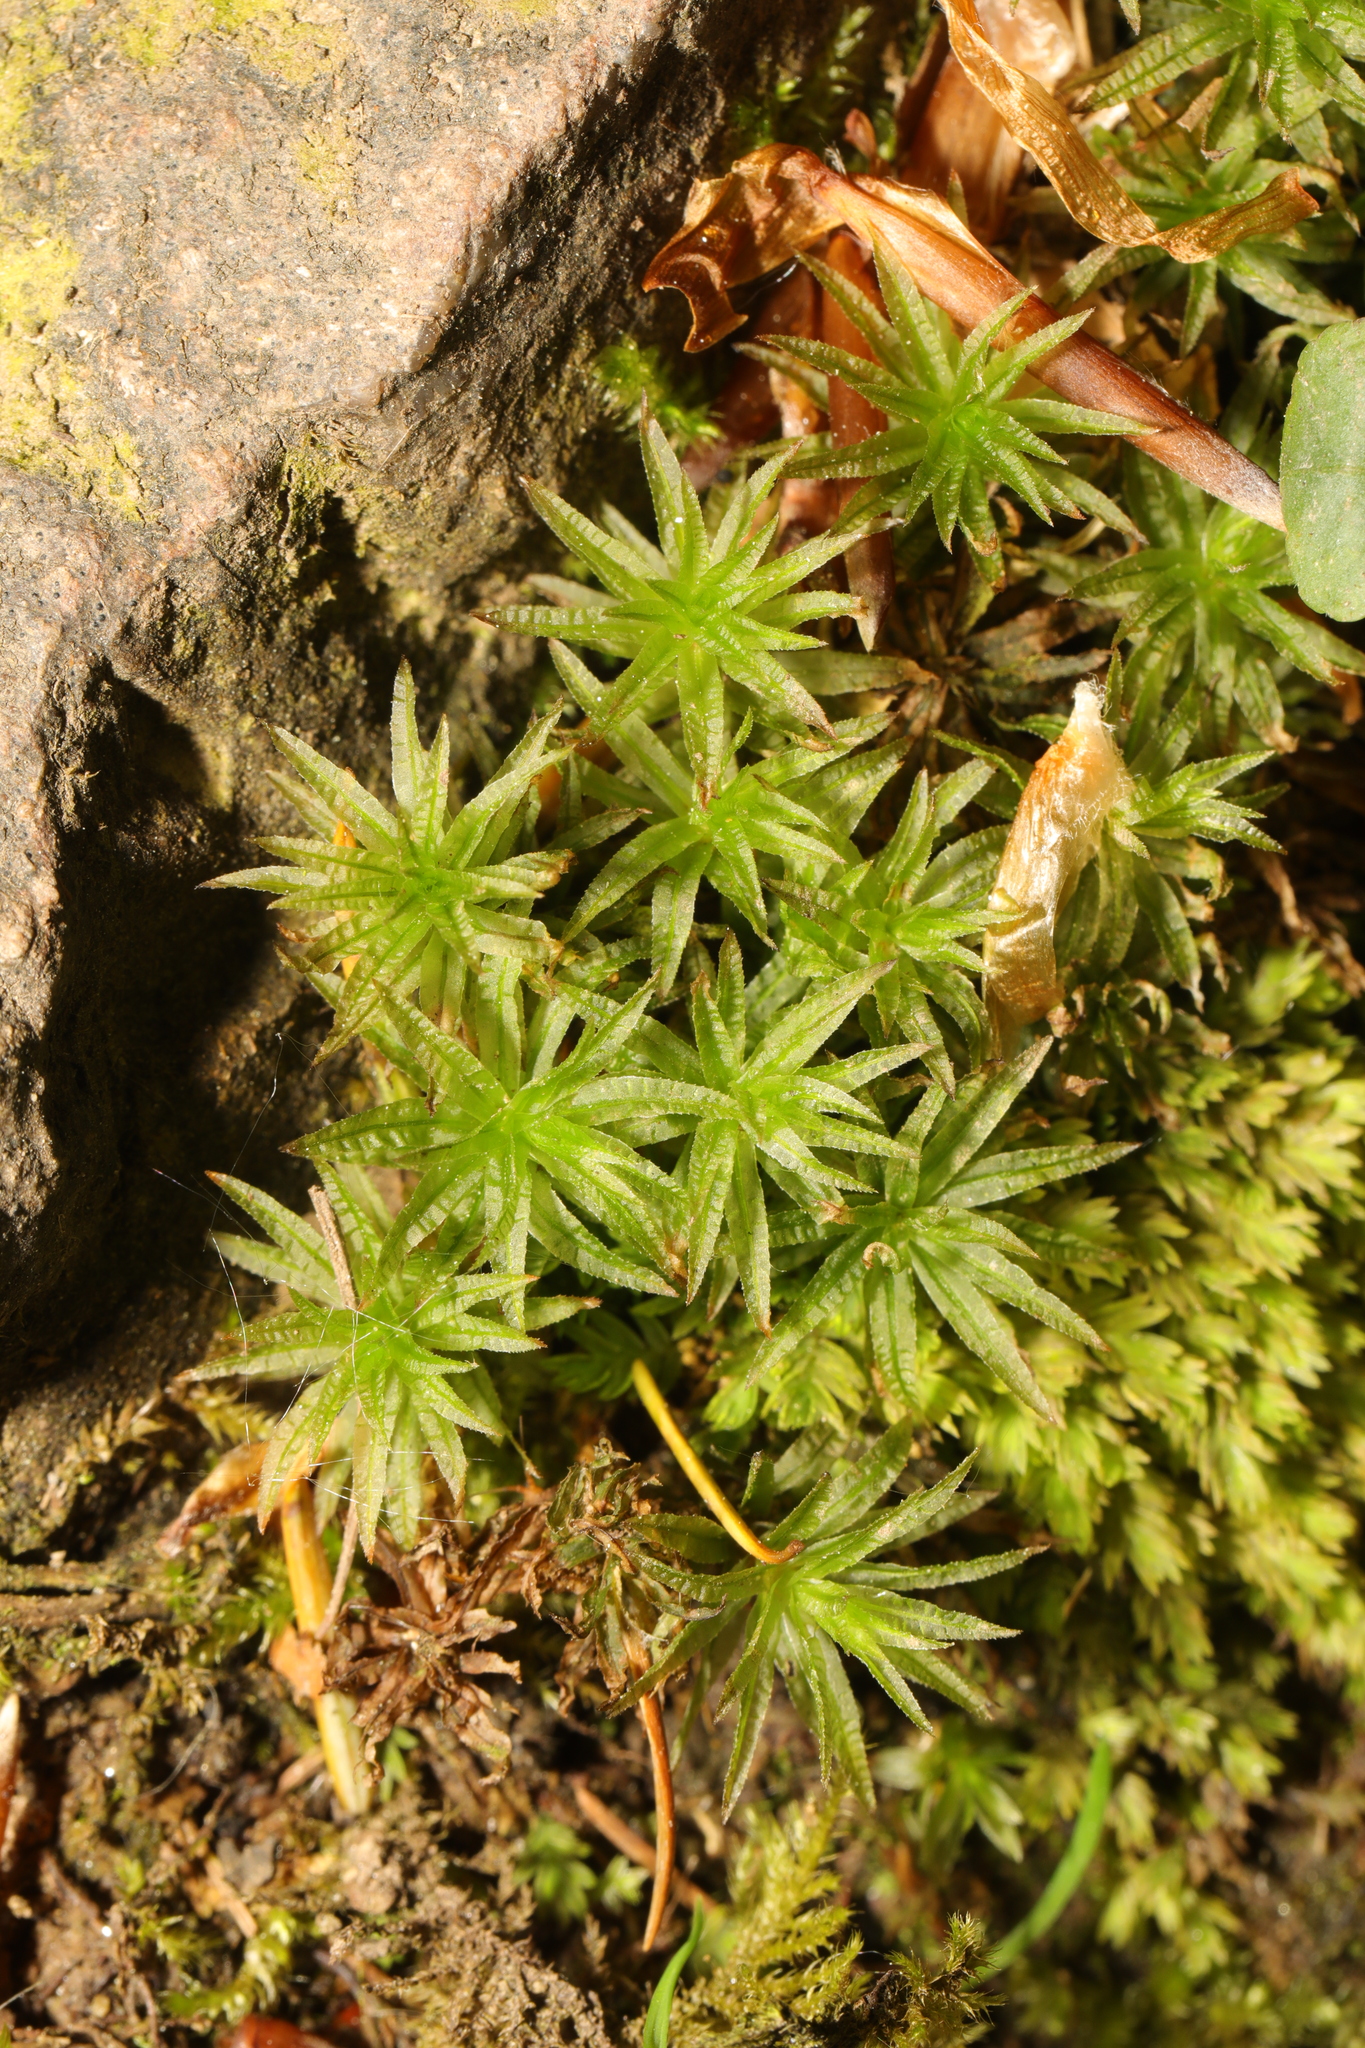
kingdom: Plantae
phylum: Bryophyta
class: Polytrichopsida
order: Polytrichales
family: Polytrichaceae
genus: Atrichum
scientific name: Atrichum undulatum
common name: Common smoothcap
